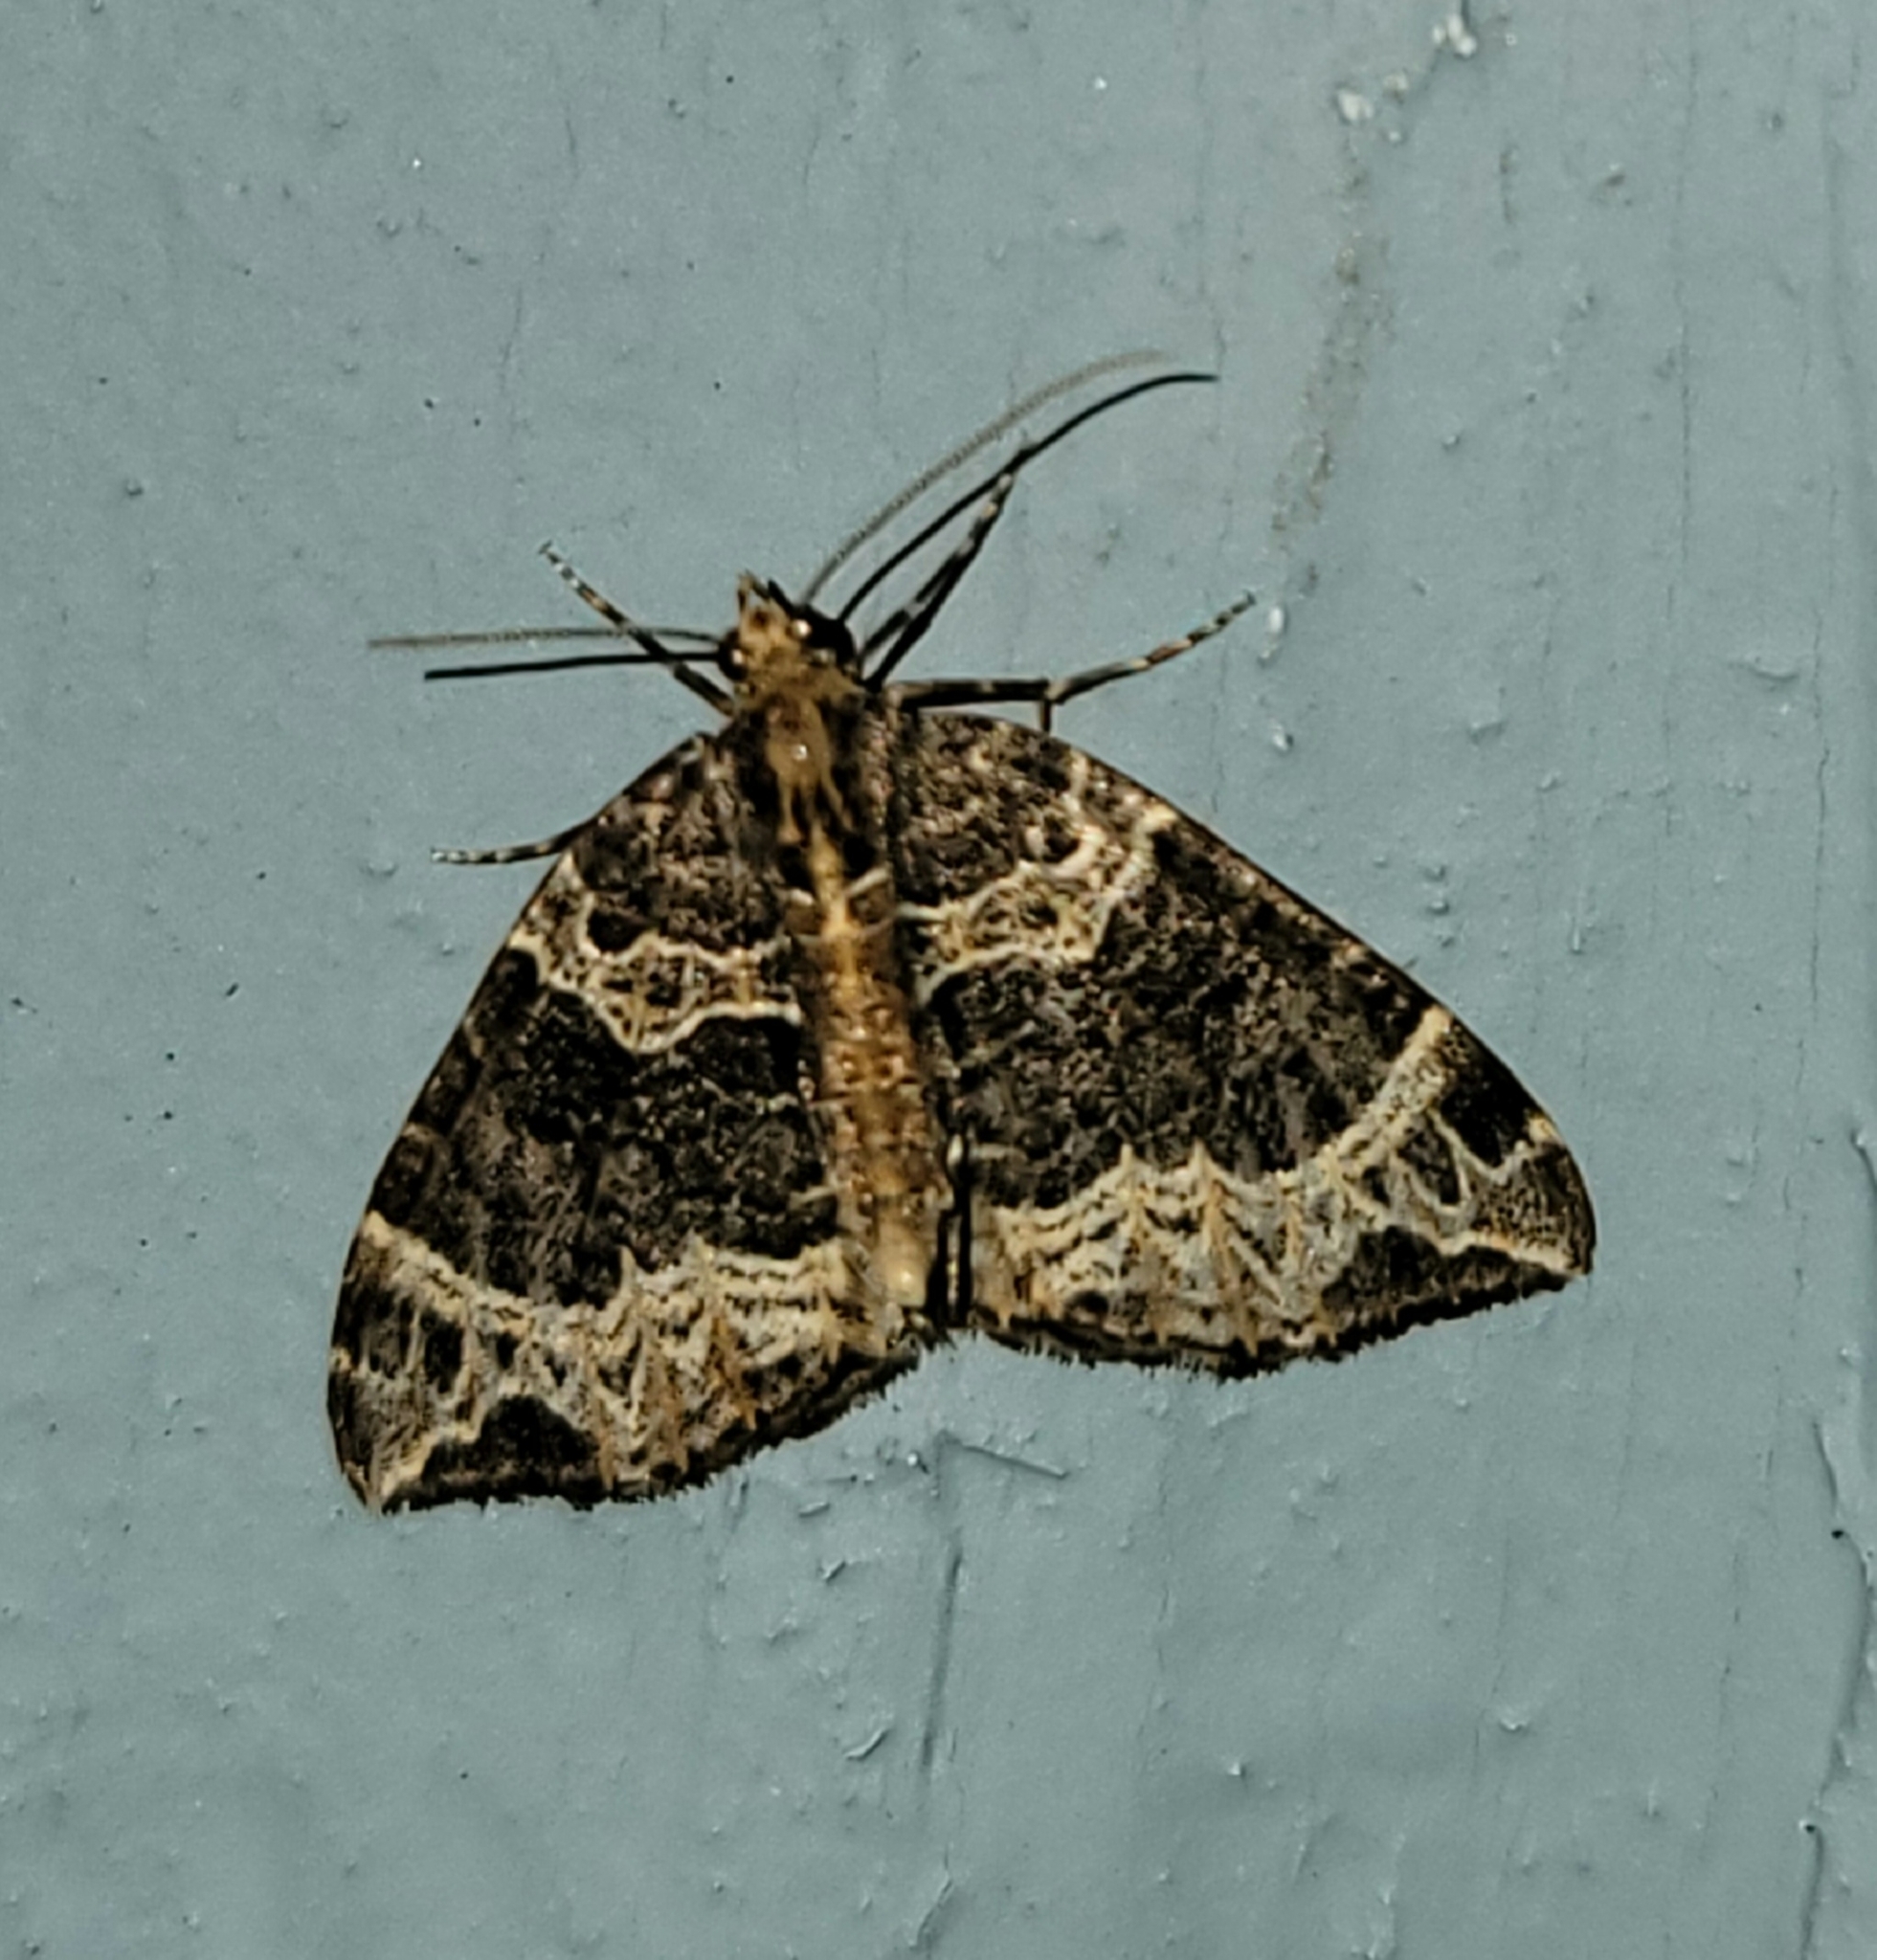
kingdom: Animalia
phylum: Arthropoda
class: Insecta
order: Lepidoptera
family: Geometridae
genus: Ecliptopera
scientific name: Ecliptopera silaceata
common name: Small phoenix
